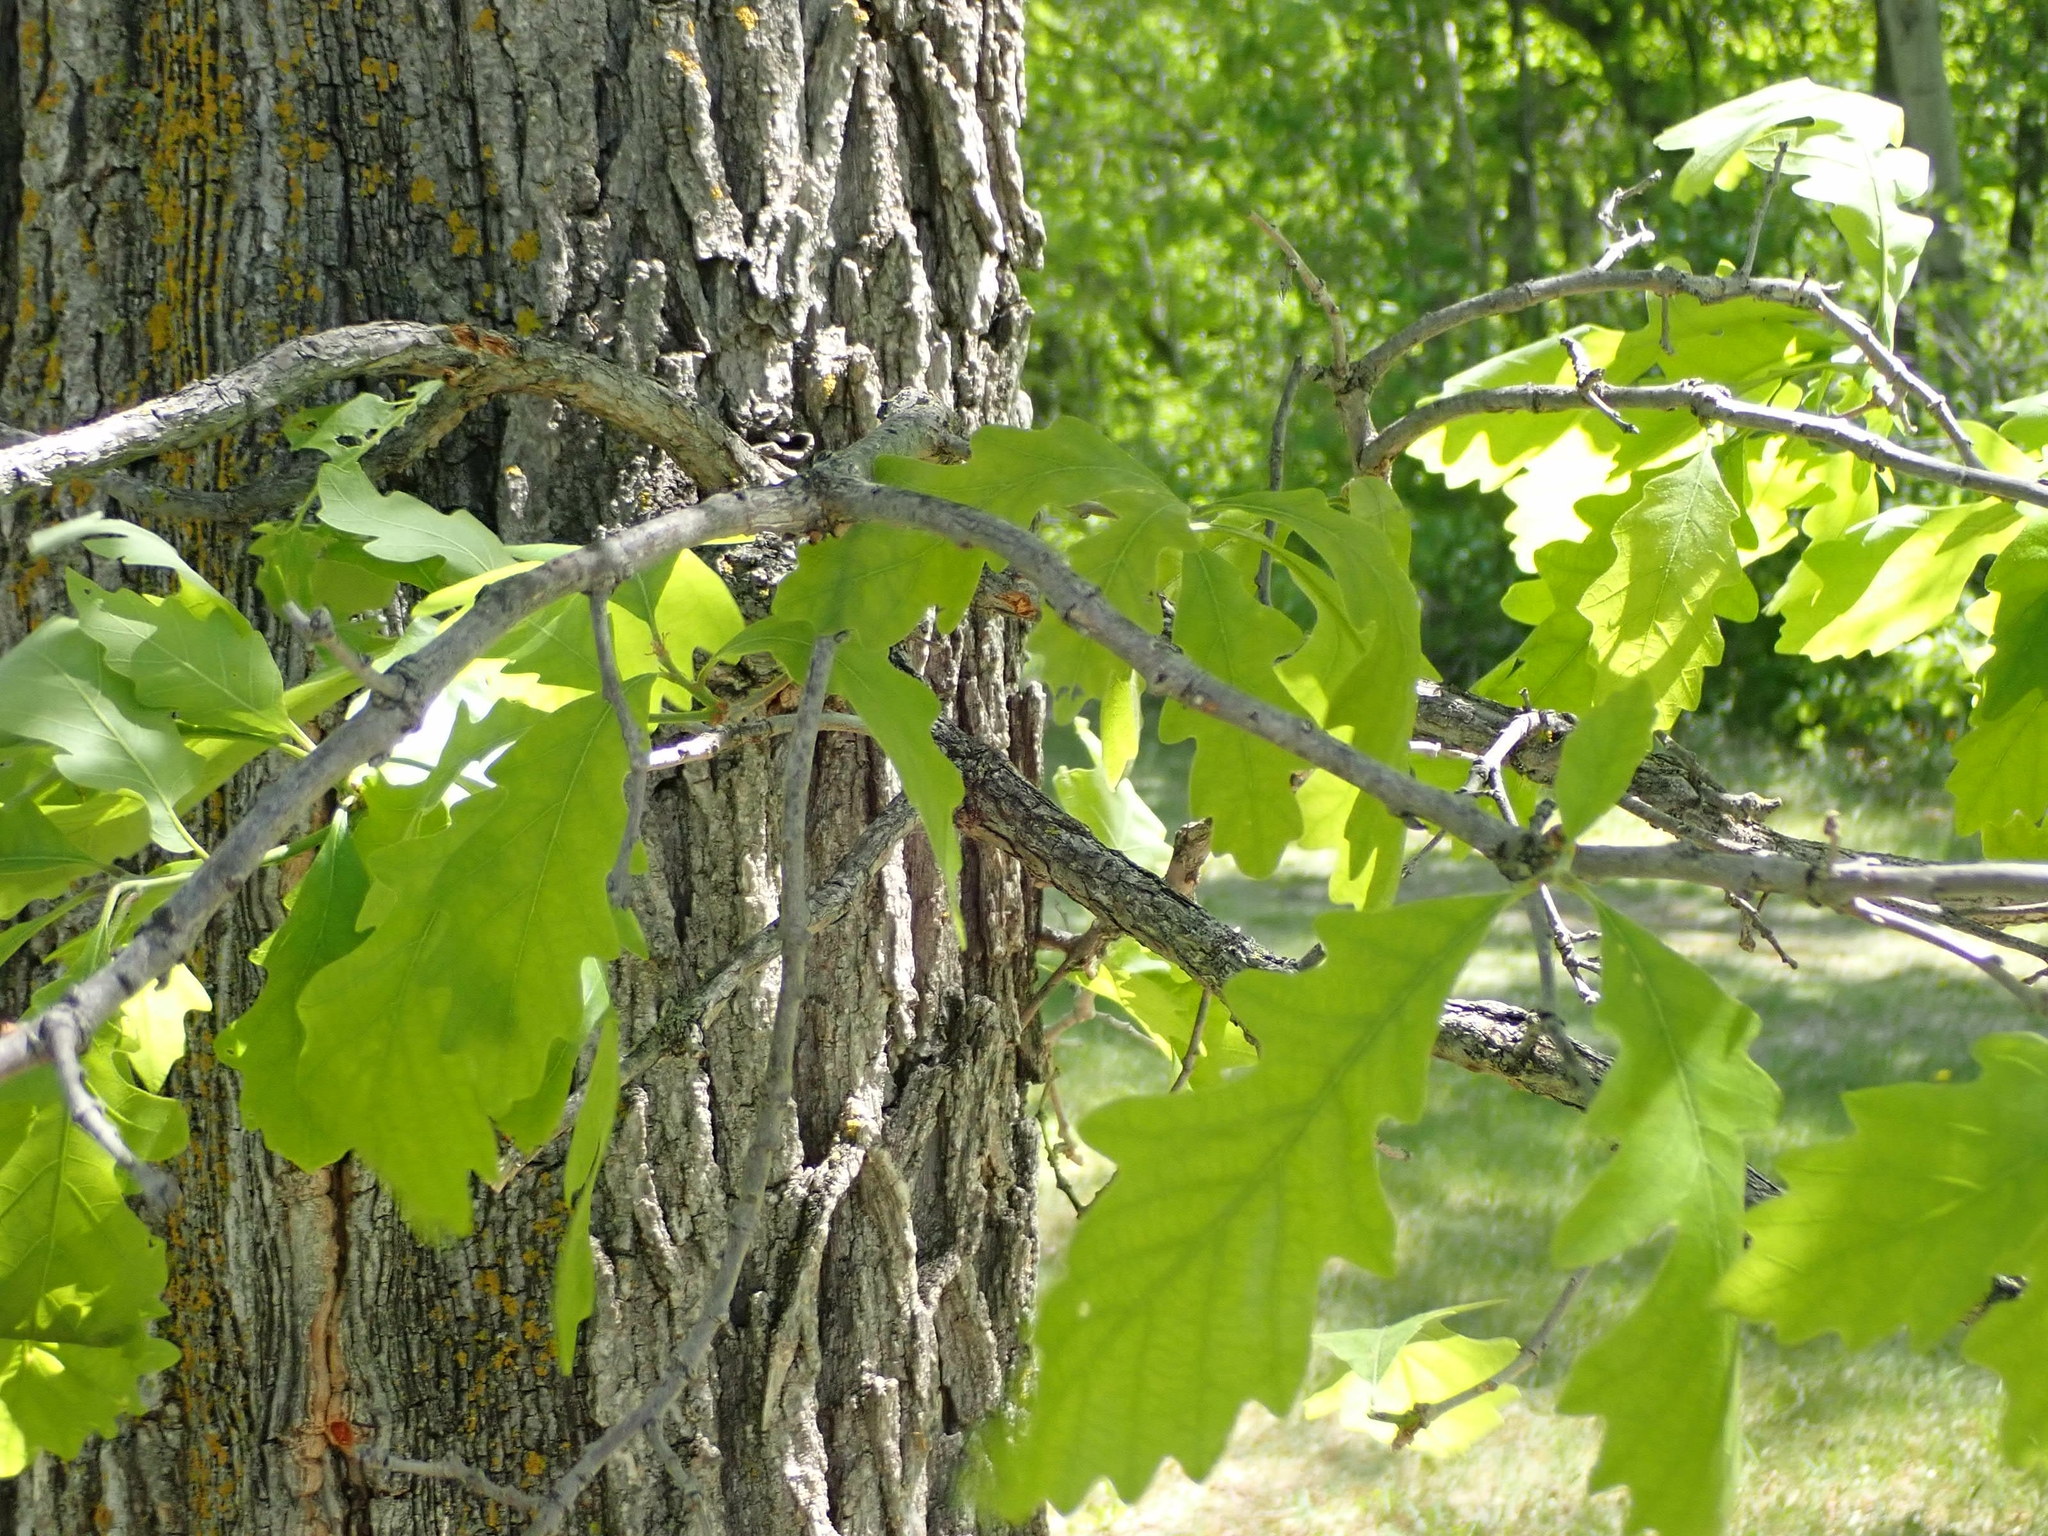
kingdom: Plantae
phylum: Tracheophyta
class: Magnoliopsida
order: Fagales
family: Fagaceae
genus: Quercus
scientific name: Quercus macrocarpa
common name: Bur oak
